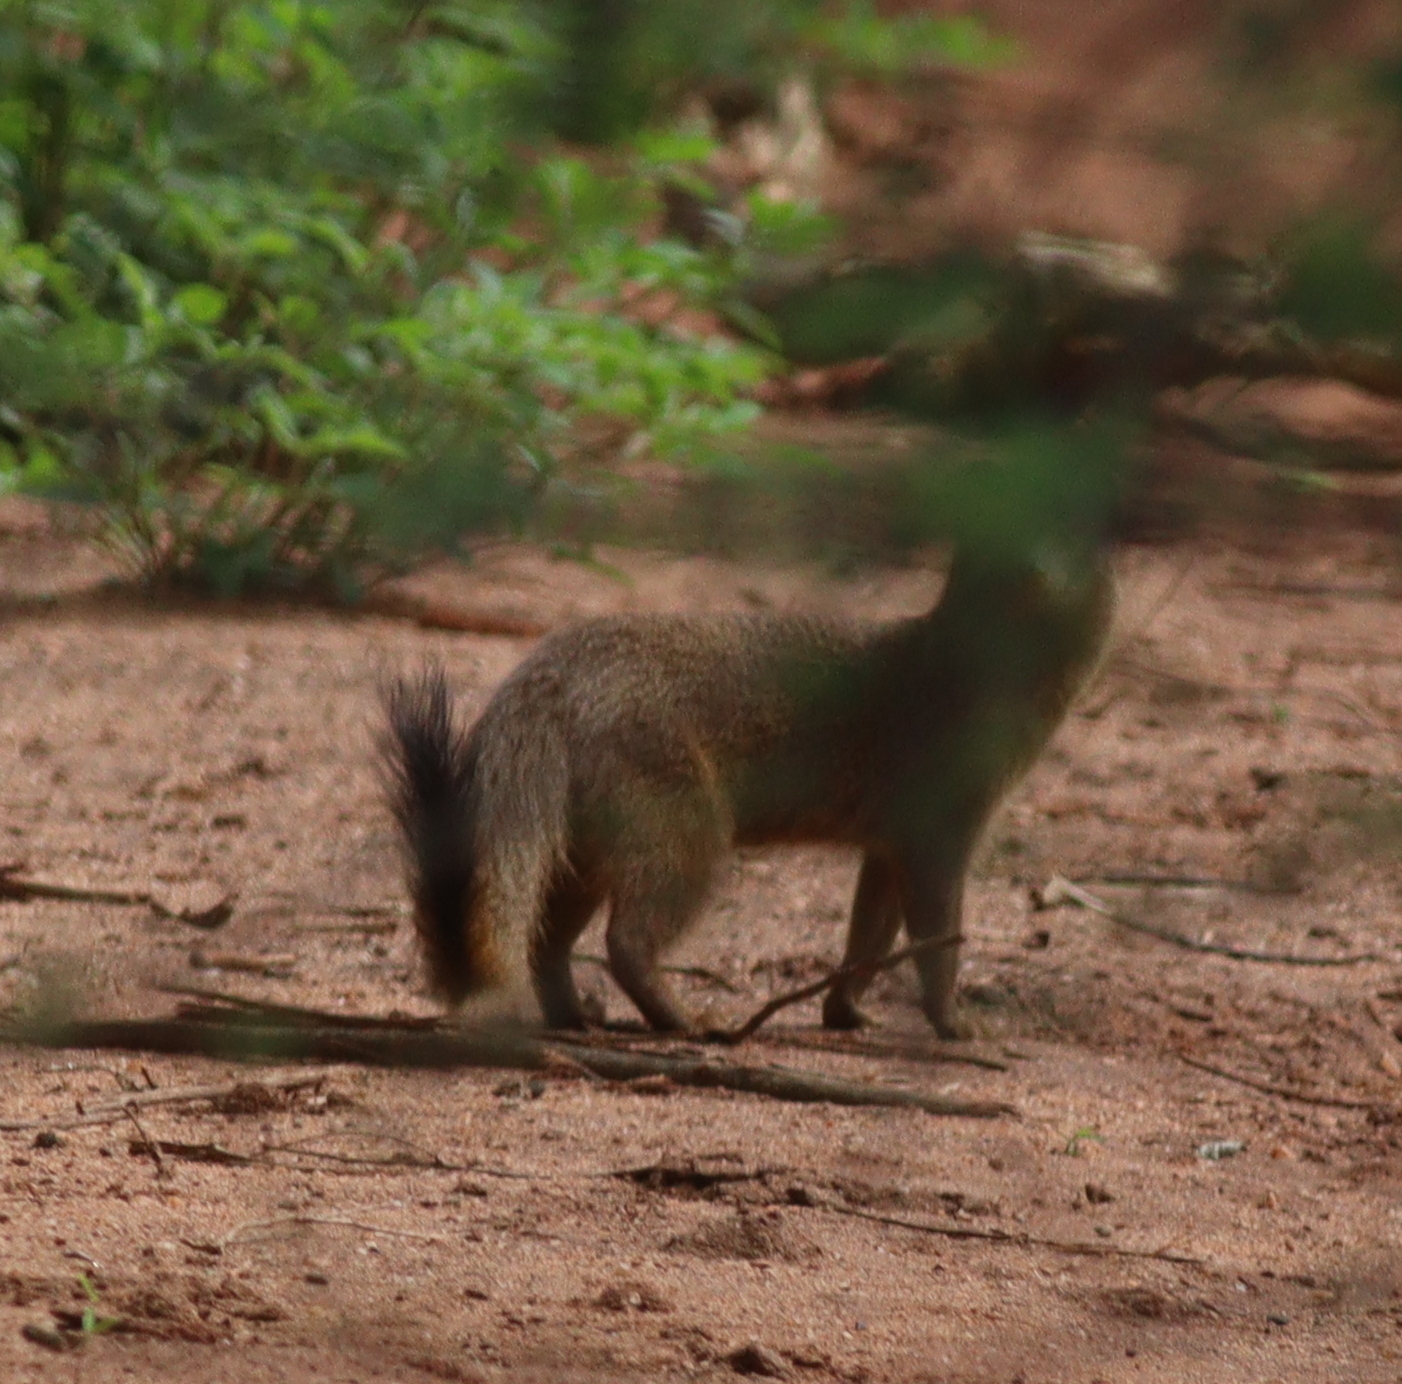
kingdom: Animalia
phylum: Chordata
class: Mammalia
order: Carnivora
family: Herpestidae
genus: Galerella
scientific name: Galerella sanguinea
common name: Slender mongoose
